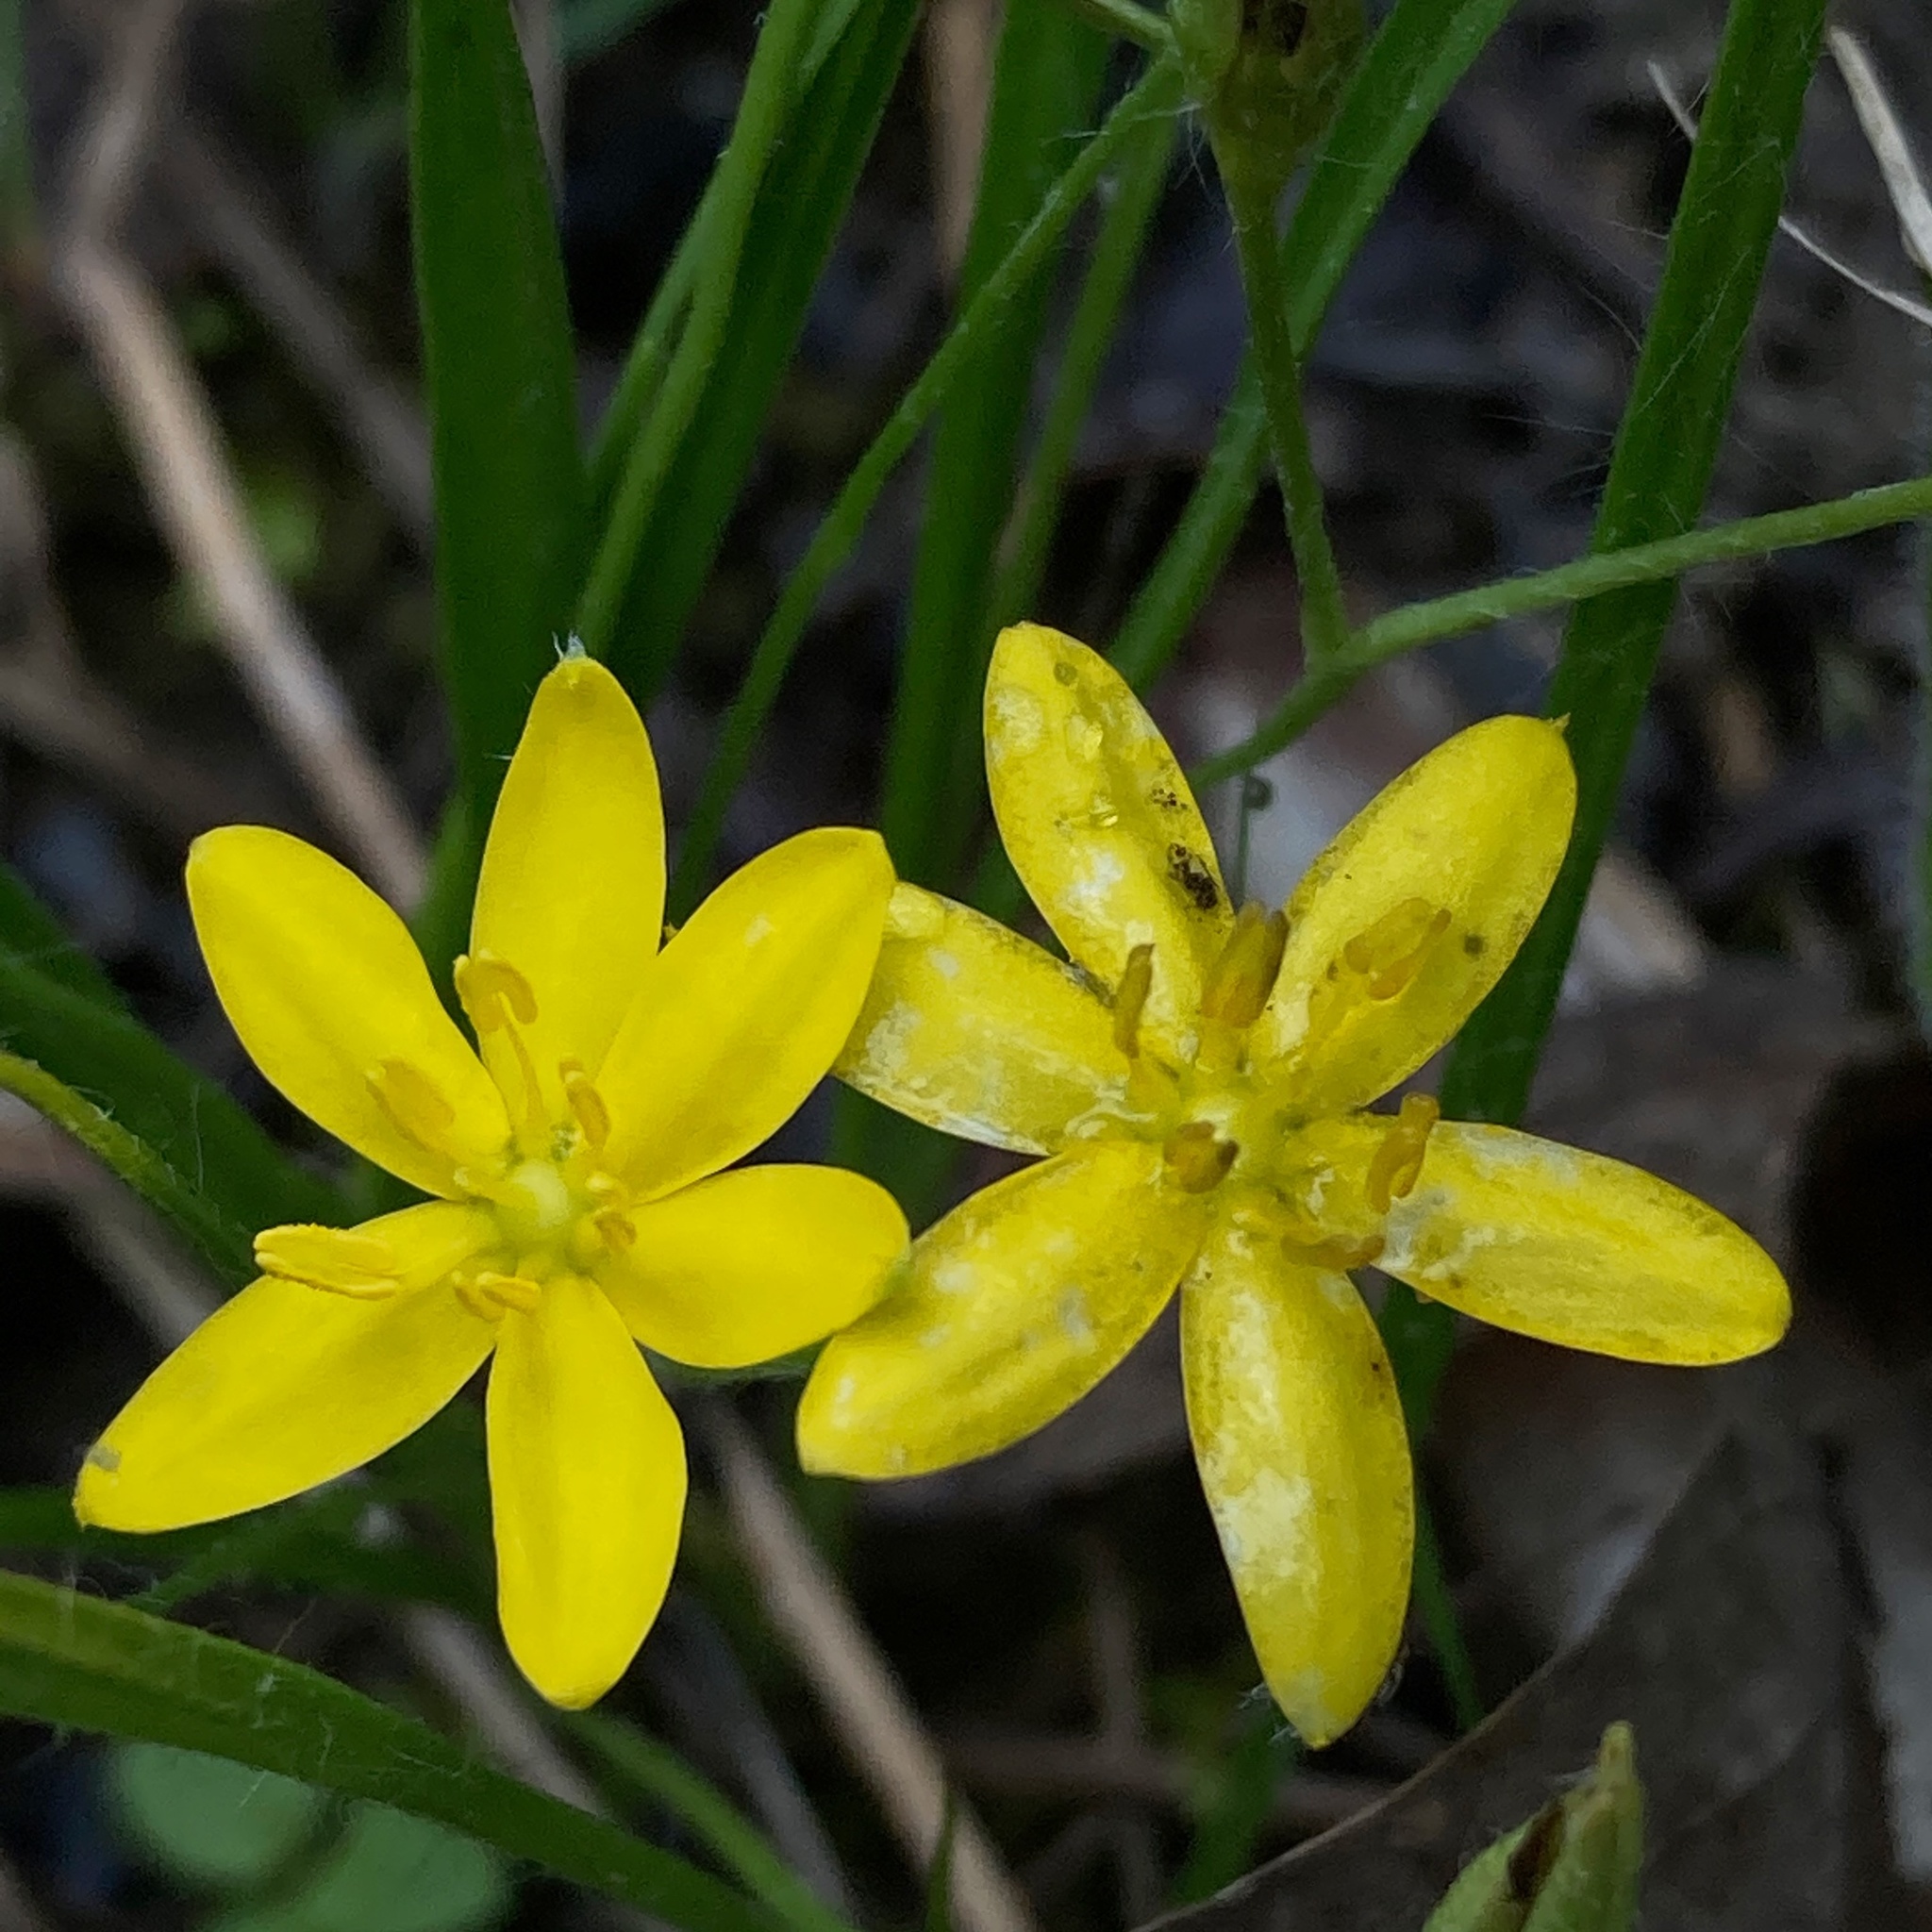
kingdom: Plantae
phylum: Tracheophyta
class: Liliopsida
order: Asparagales
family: Hypoxidaceae
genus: Hypoxis
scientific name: Hypoxis hirsuta
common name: Common goldstar
